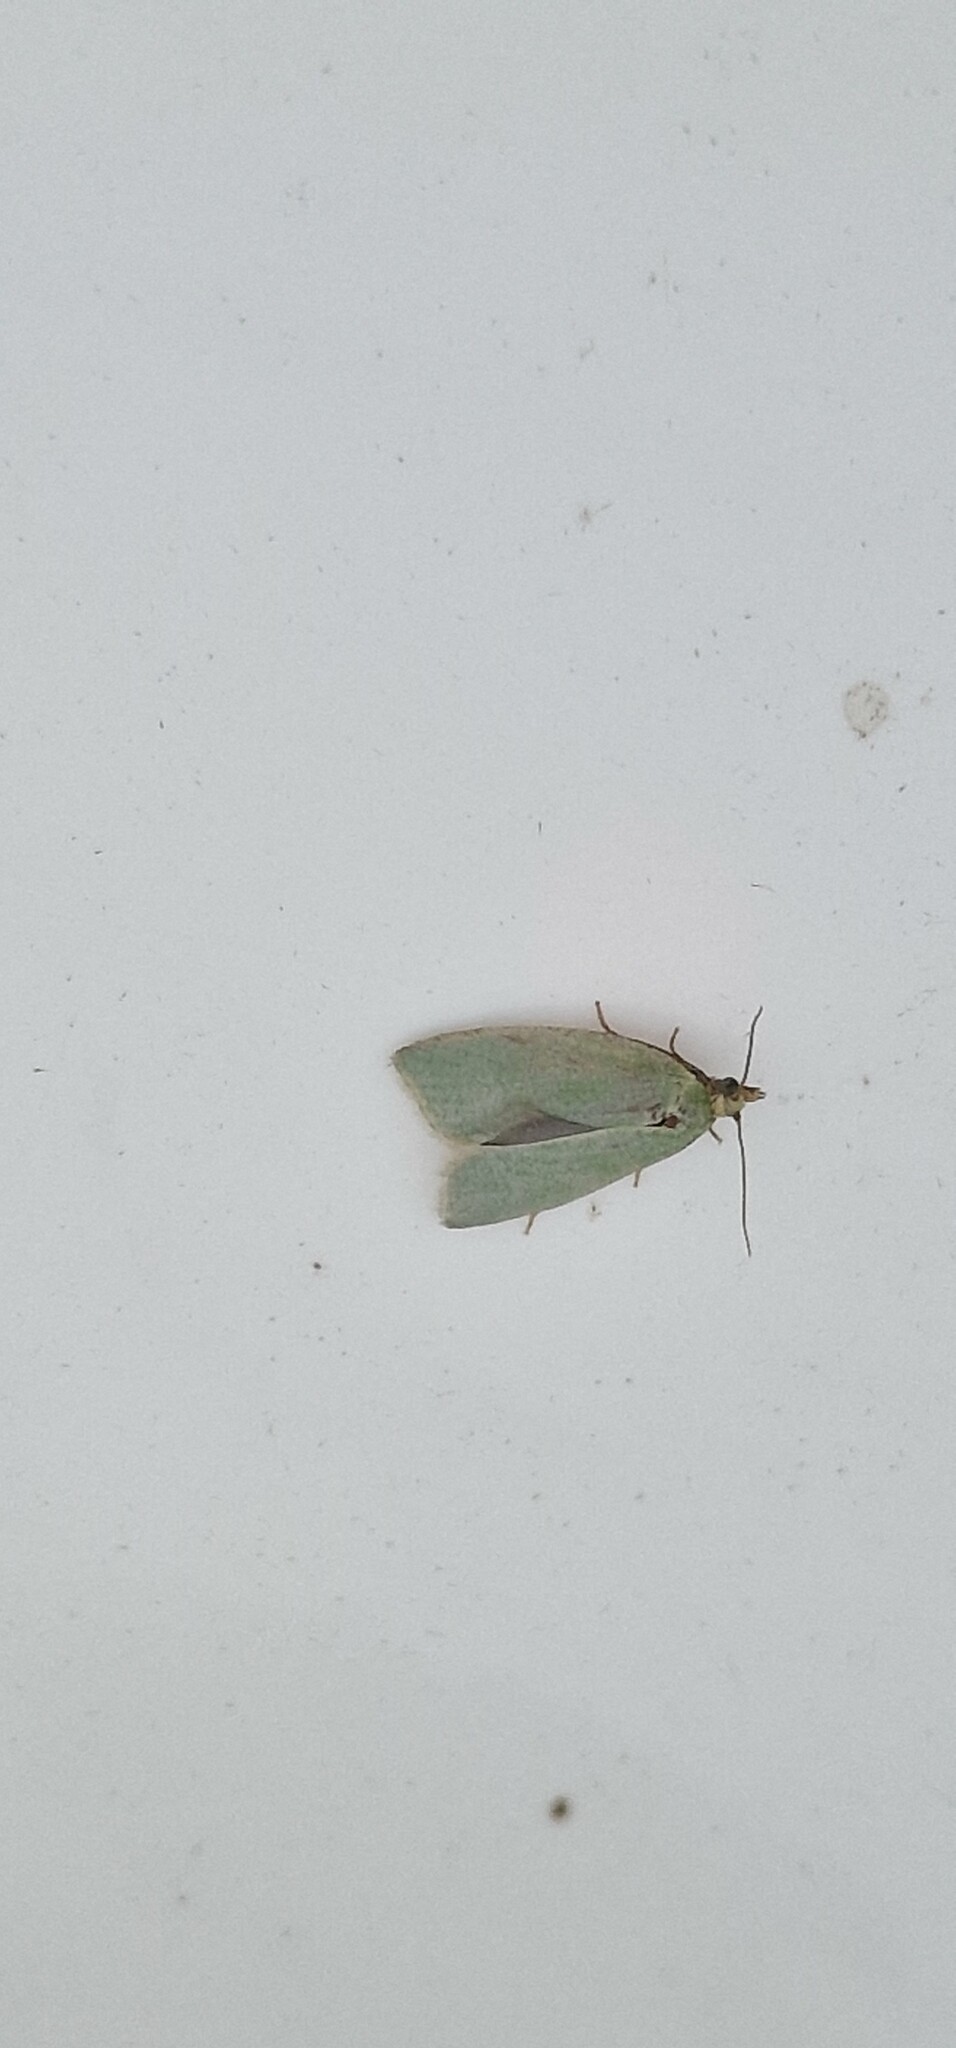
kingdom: Animalia
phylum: Arthropoda
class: Insecta
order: Lepidoptera
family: Tortricidae
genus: Tortrix
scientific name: Tortrix viridana
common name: Green oak tortrix
